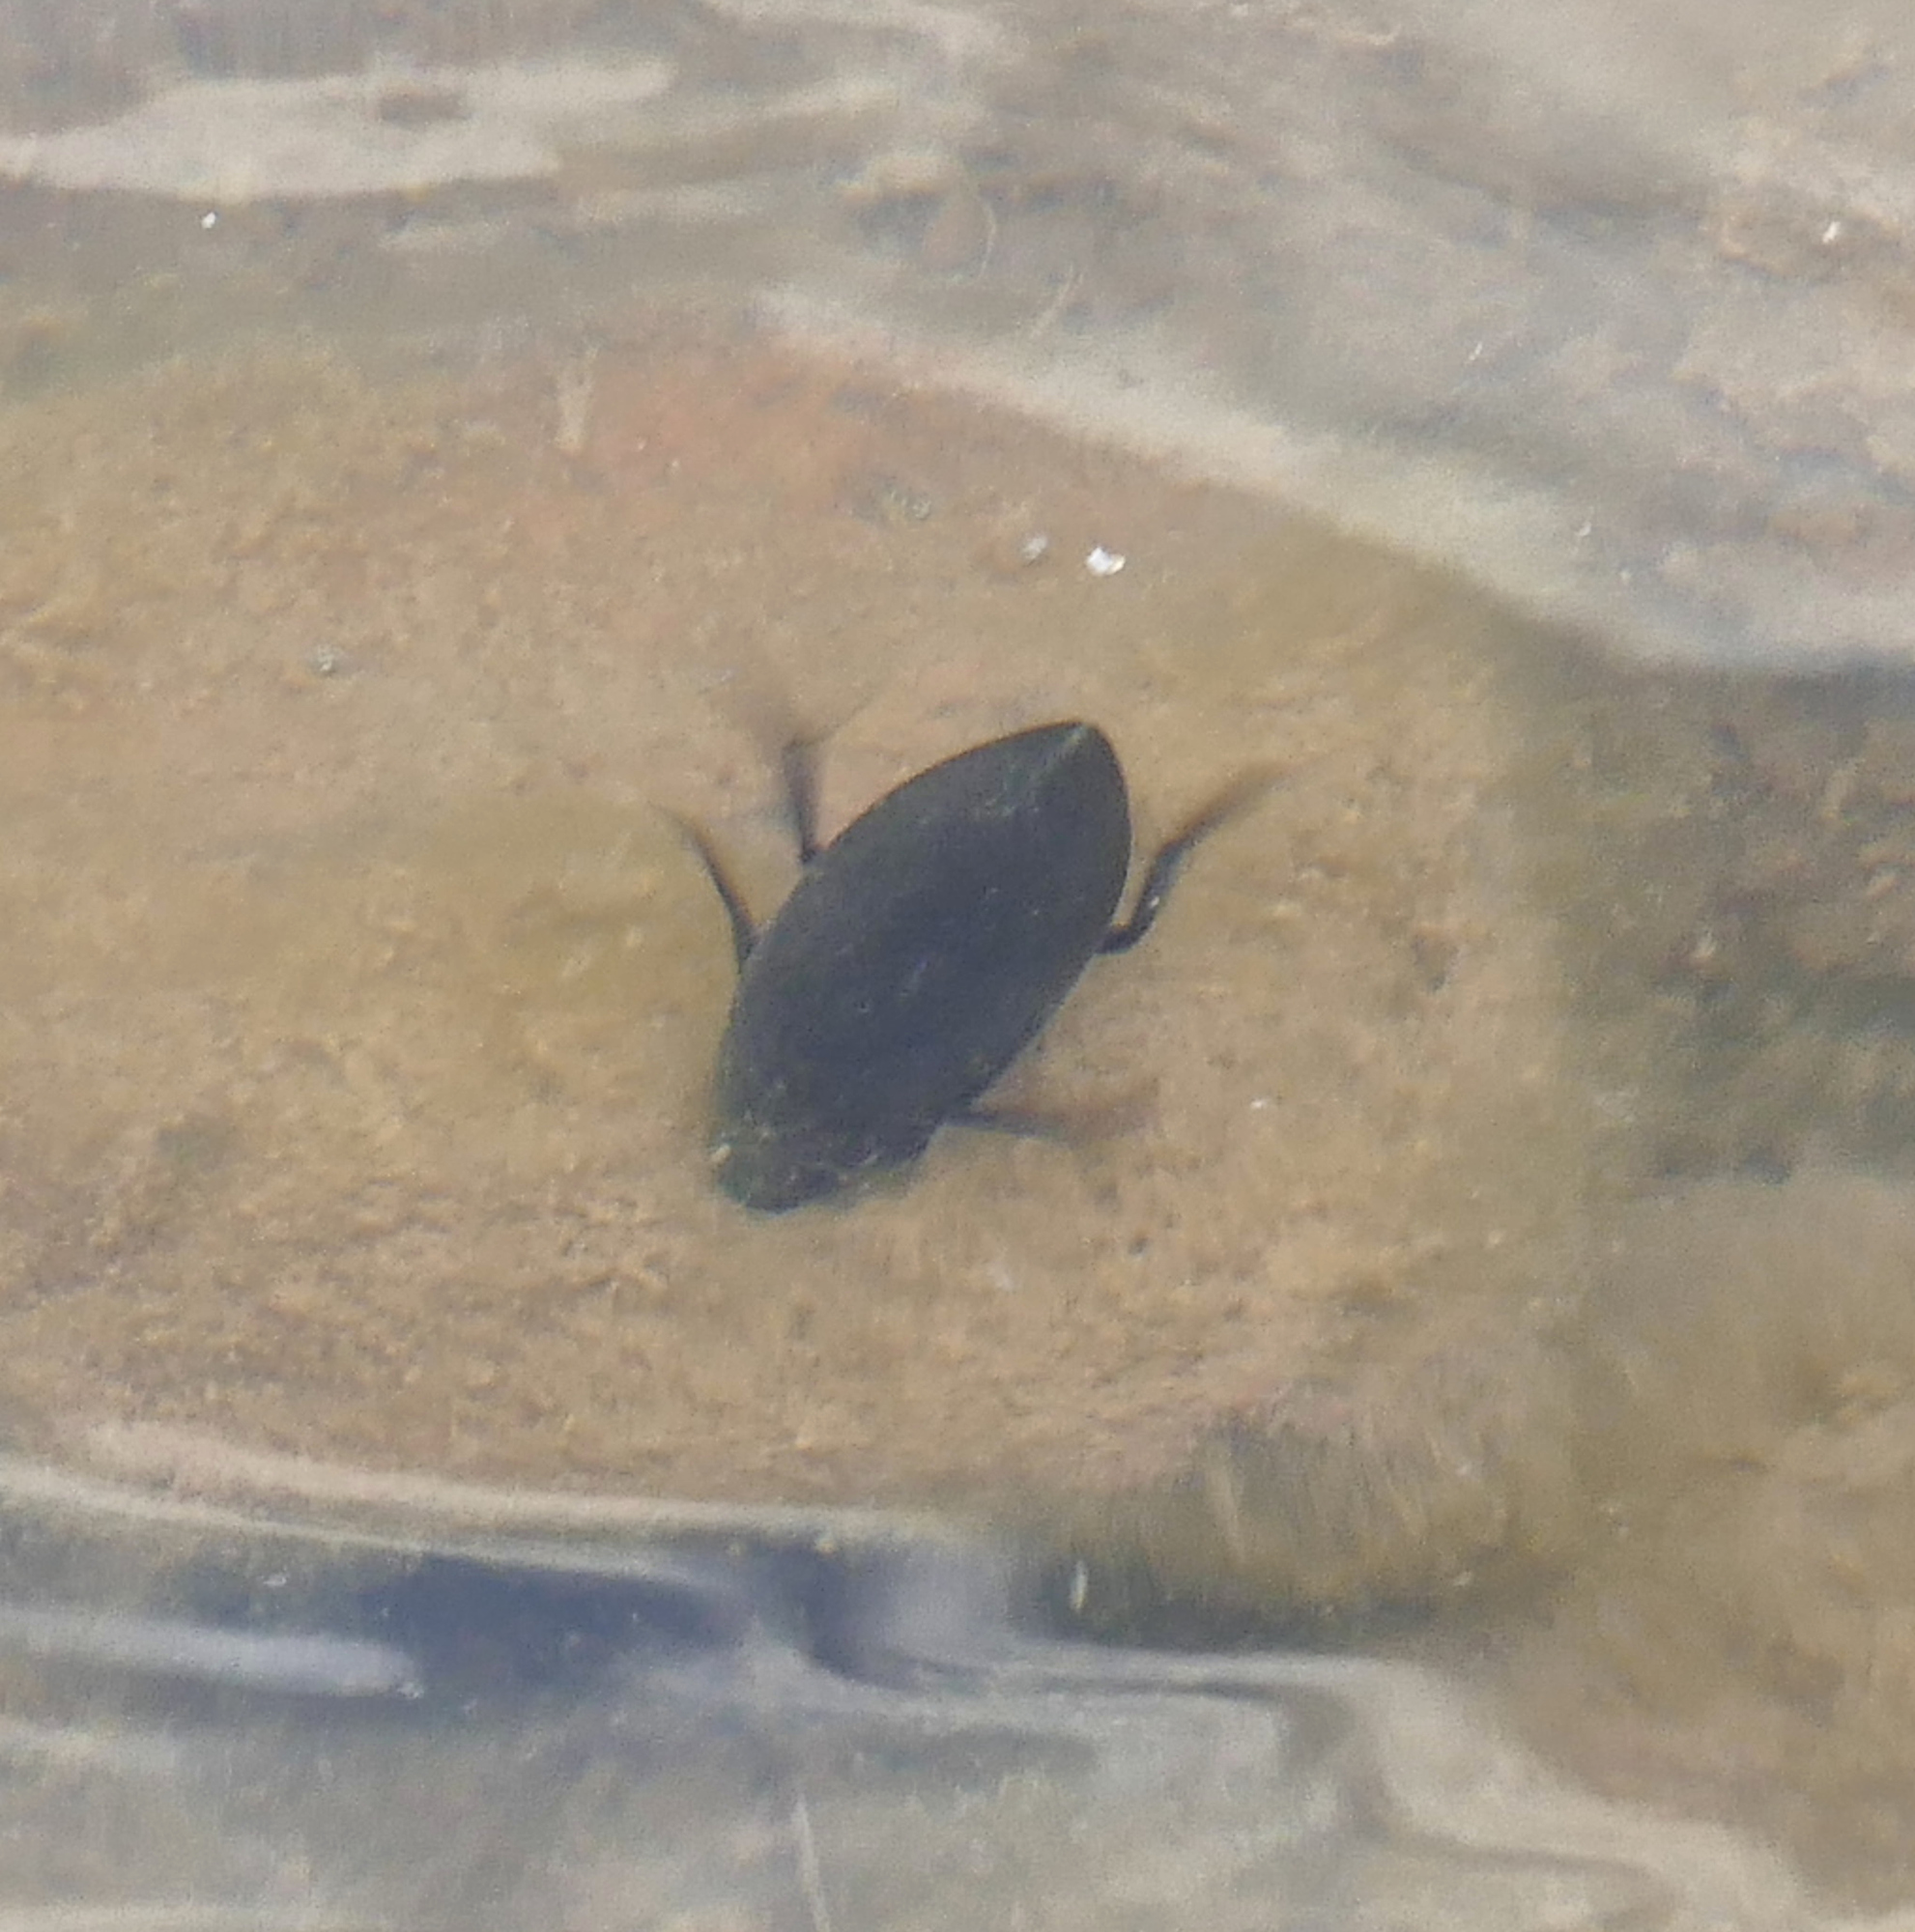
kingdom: Animalia
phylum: Arthropoda
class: Insecta
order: Coleoptera
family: Hydrophilidae
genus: Hydrophilus
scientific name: Hydrophilus triangularis
